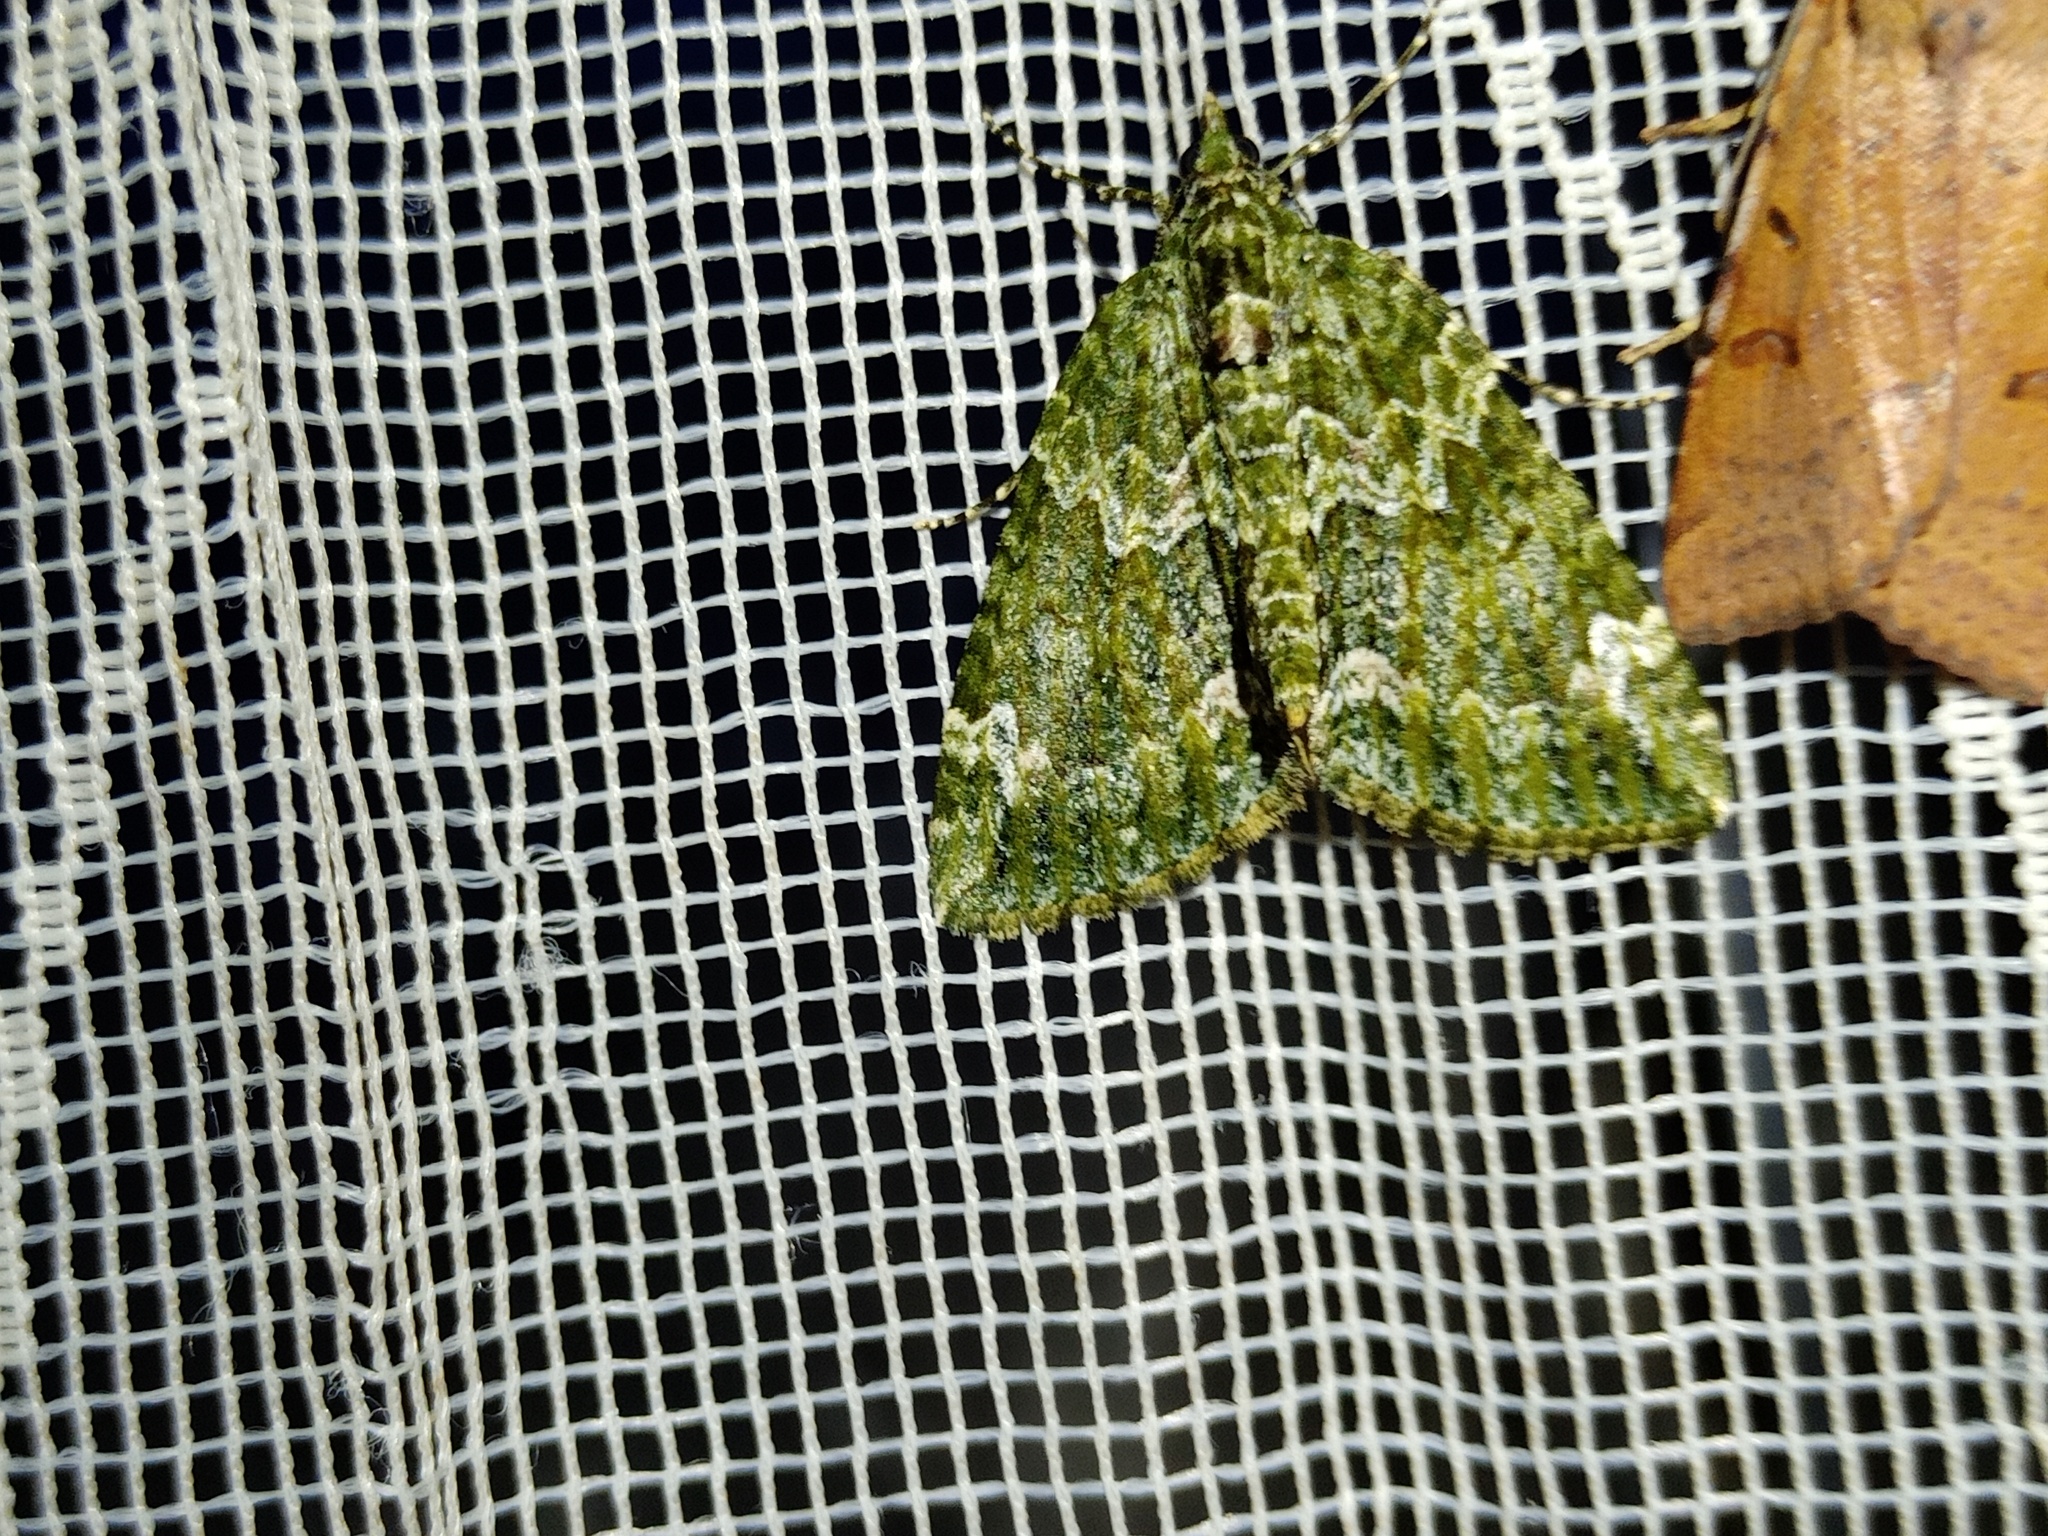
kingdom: Animalia
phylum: Arthropoda
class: Insecta
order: Lepidoptera
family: Geometridae
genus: Chloroclysta
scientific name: Chloroclysta siterata
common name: Red-green carpet
